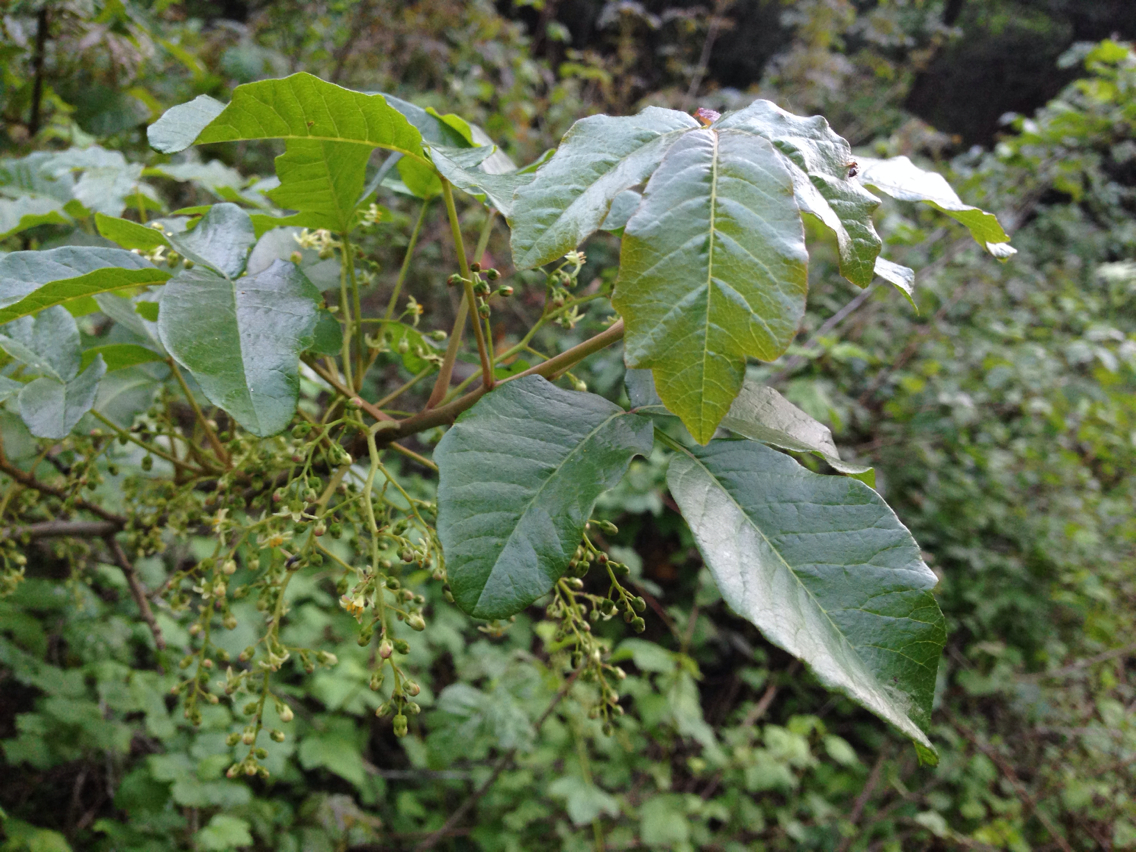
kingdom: Plantae
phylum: Tracheophyta
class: Magnoliopsida
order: Sapindales
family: Anacardiaceae
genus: Toxicodendron
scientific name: Toxicodendron diversilobum
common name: Pacific poison-oak
